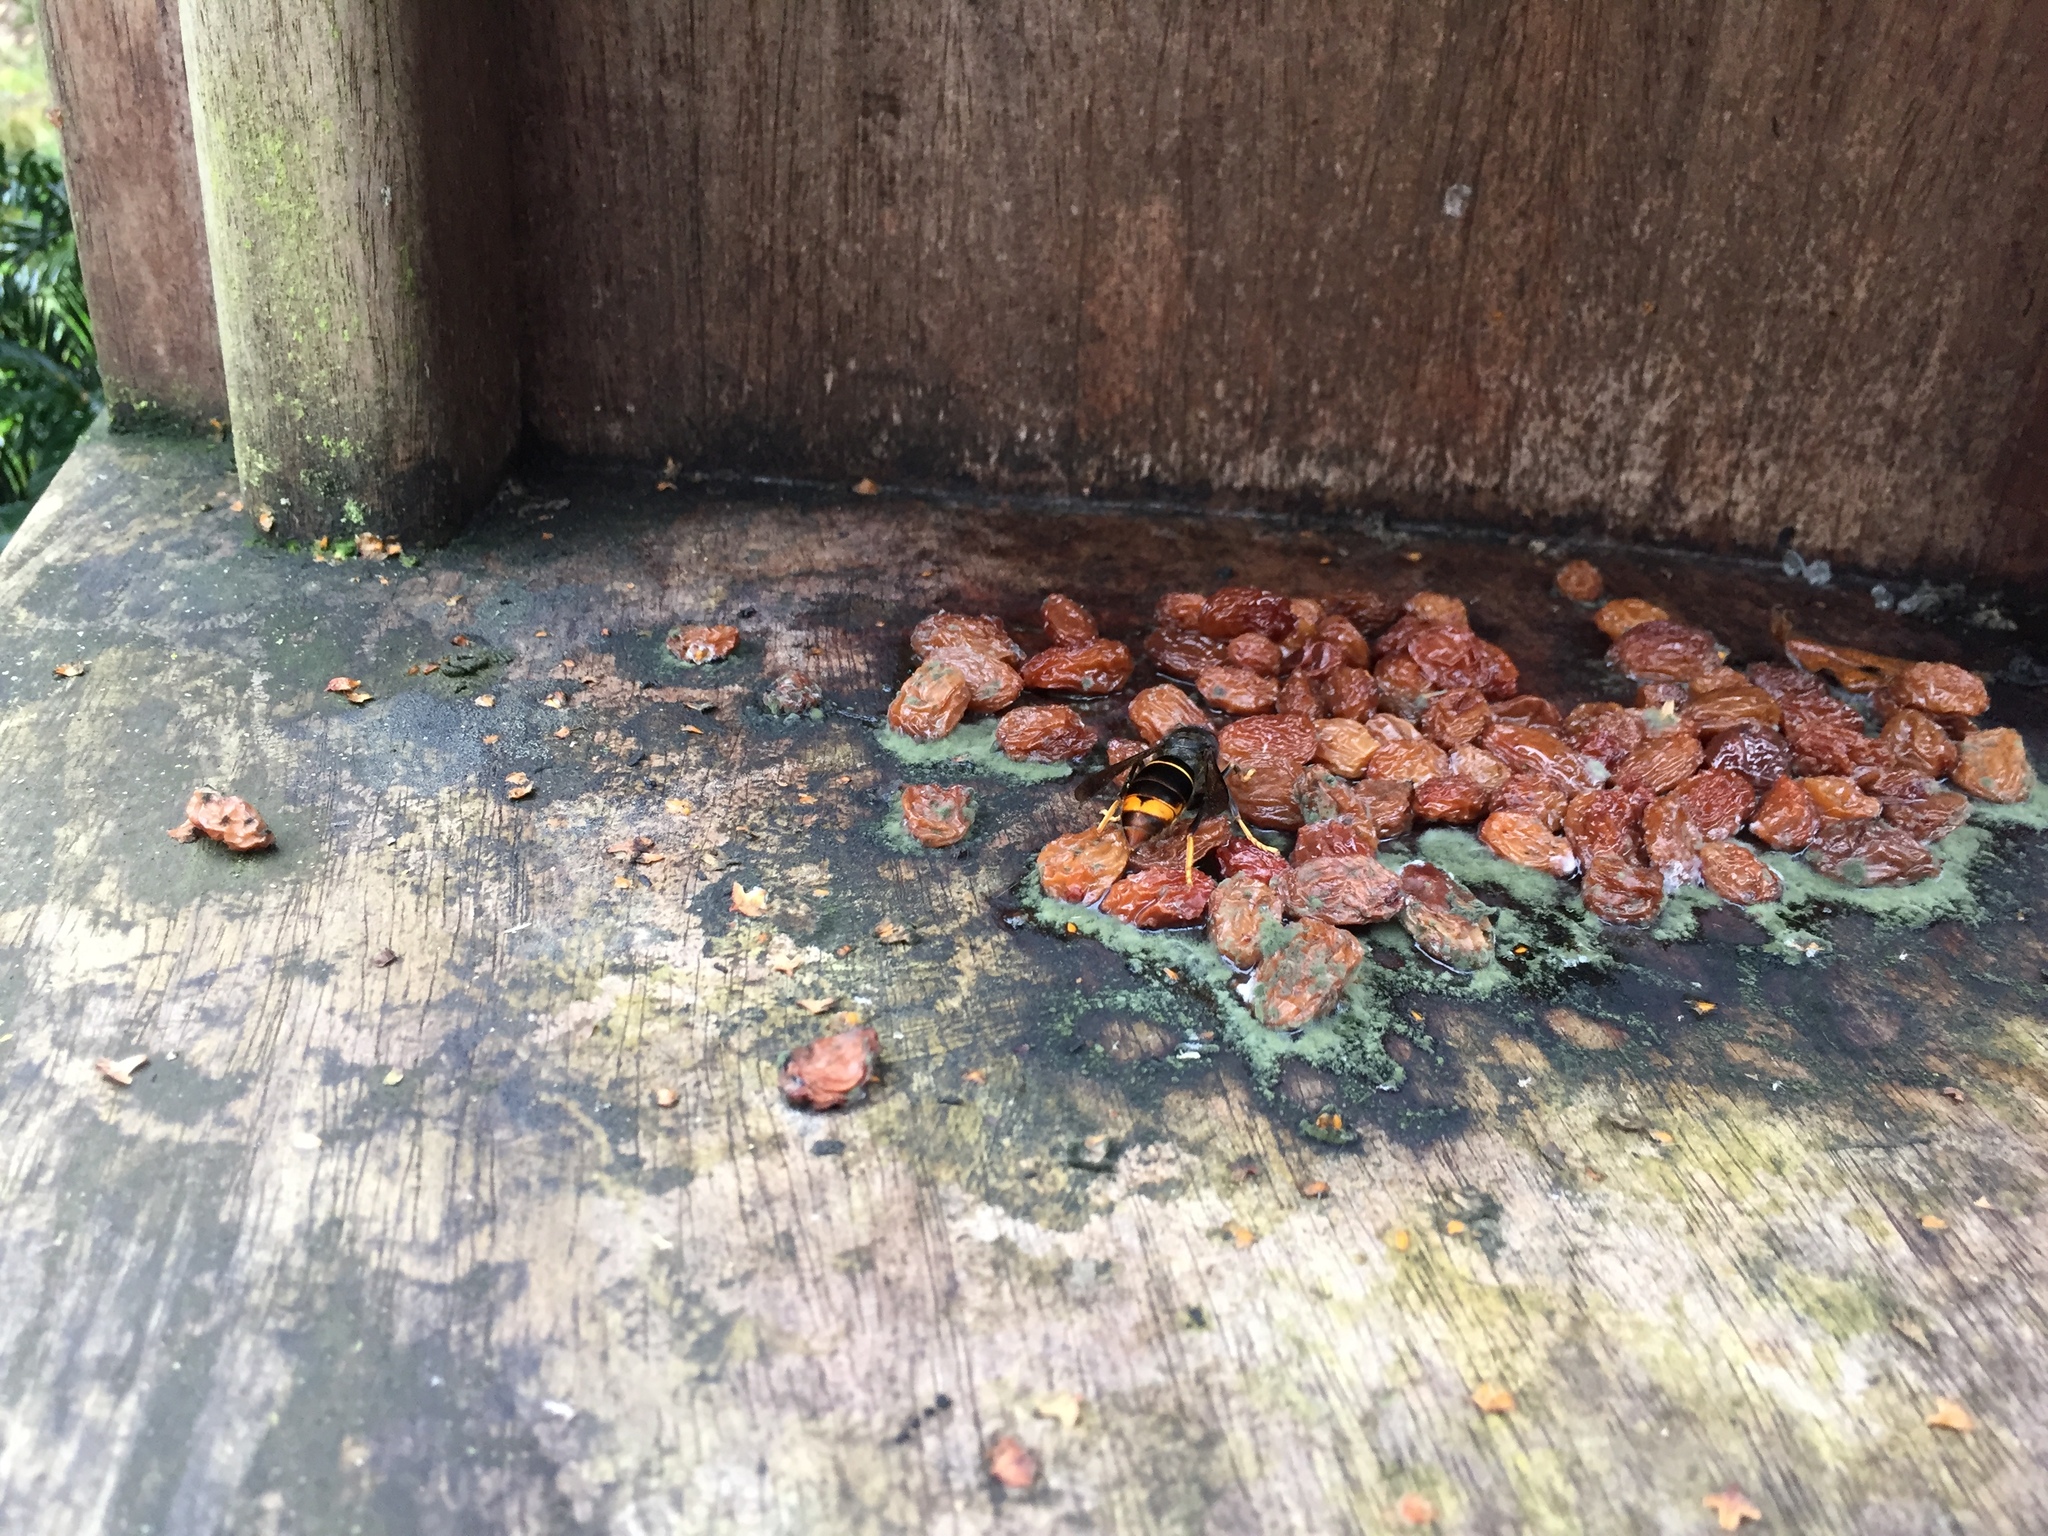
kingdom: Animalia
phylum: Arthropoda
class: Insecta
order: Hymenoptera
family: Vespidae
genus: Vespa
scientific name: Vespa velutina
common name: Asian hornet
